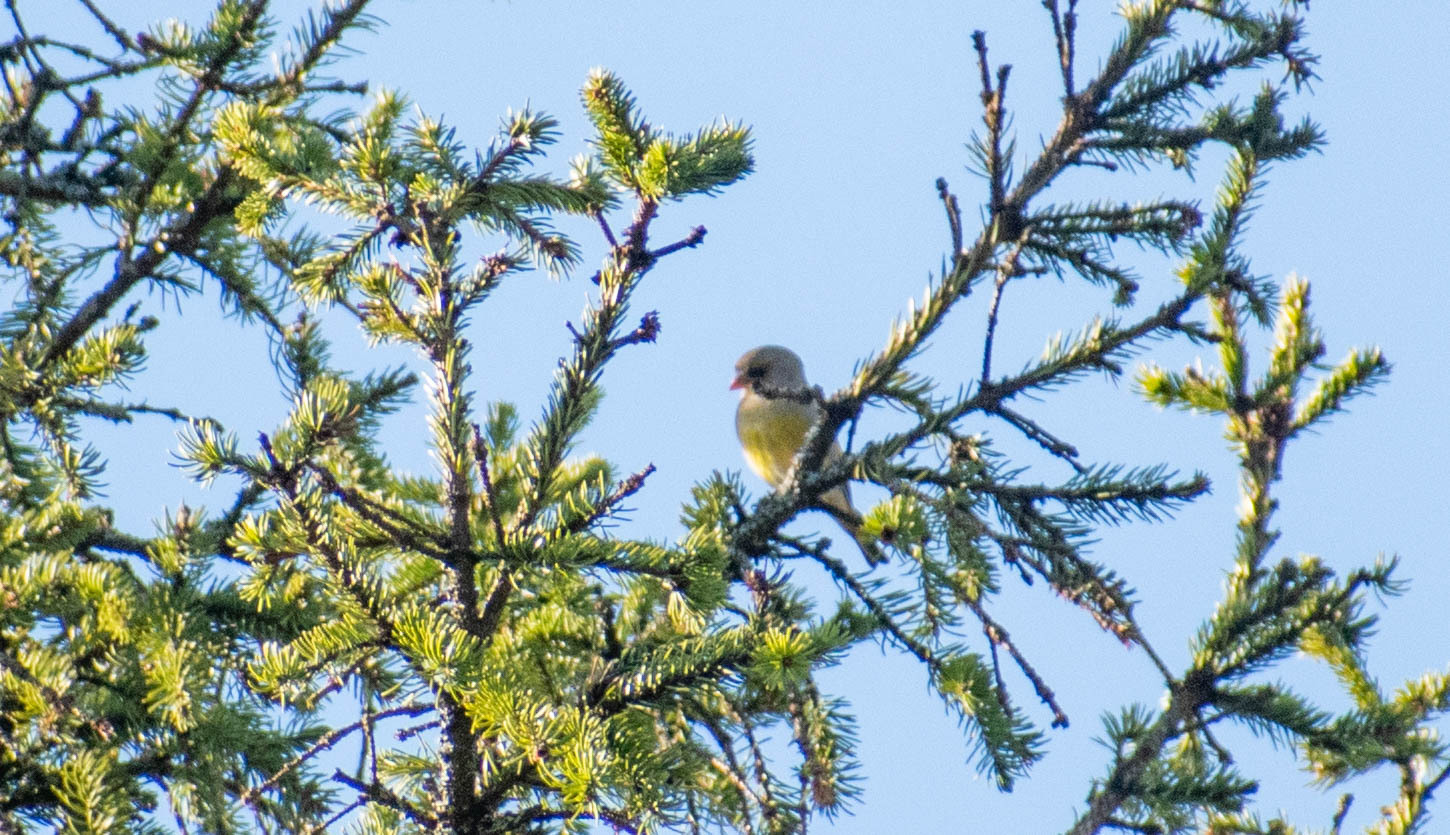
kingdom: Plantae
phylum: Tracheophyta
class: Liliopsida
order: Poales
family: Poaceae
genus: Chloris
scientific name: Chloris chloris
